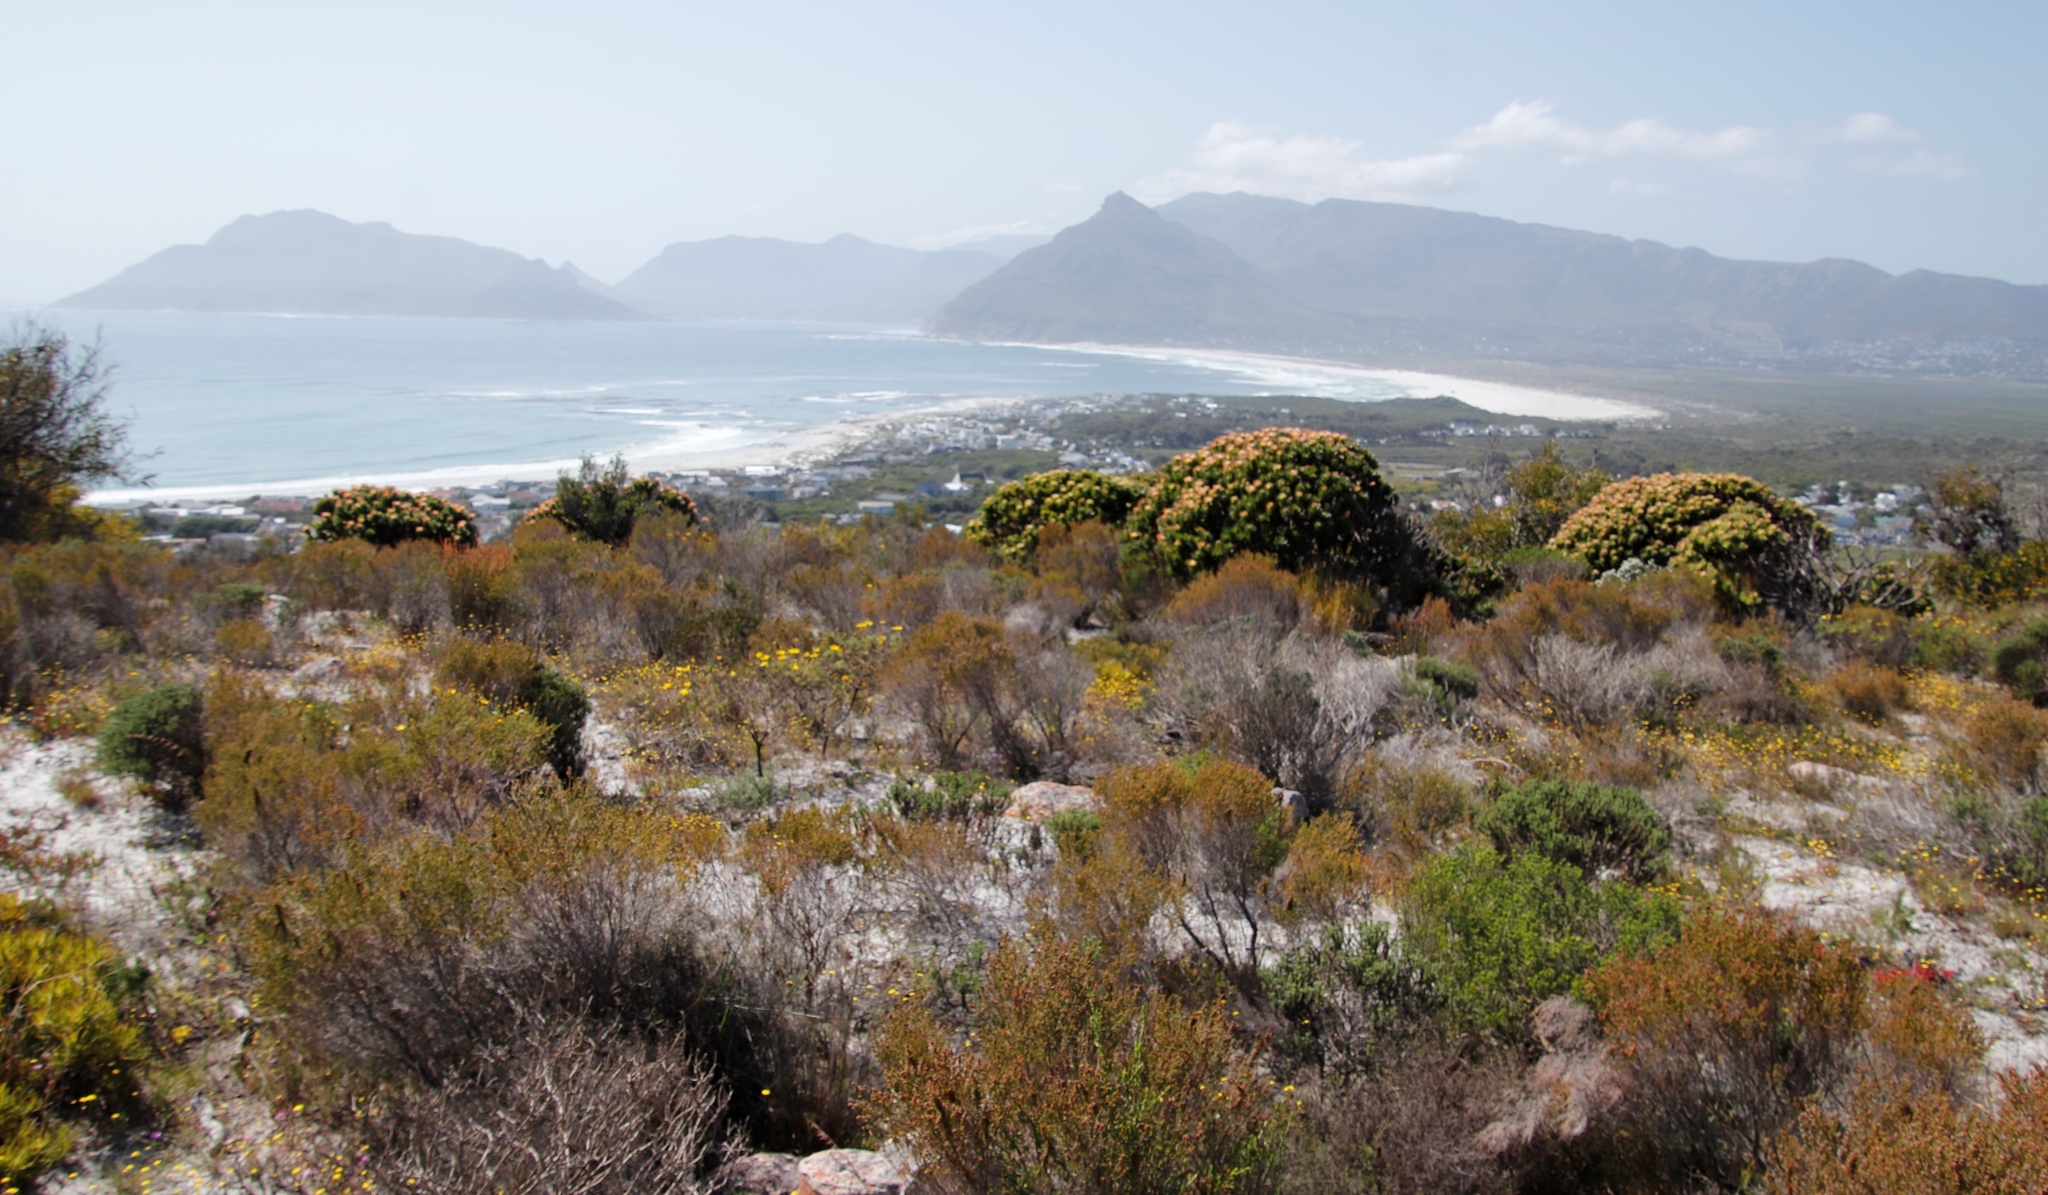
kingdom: Plantae
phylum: Tracheophyta
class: Magnoliopsida
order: Proteales
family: Proteaceae
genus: Mimetes
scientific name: Mimetes fimbriifolius
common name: Fringed bottlebrush
